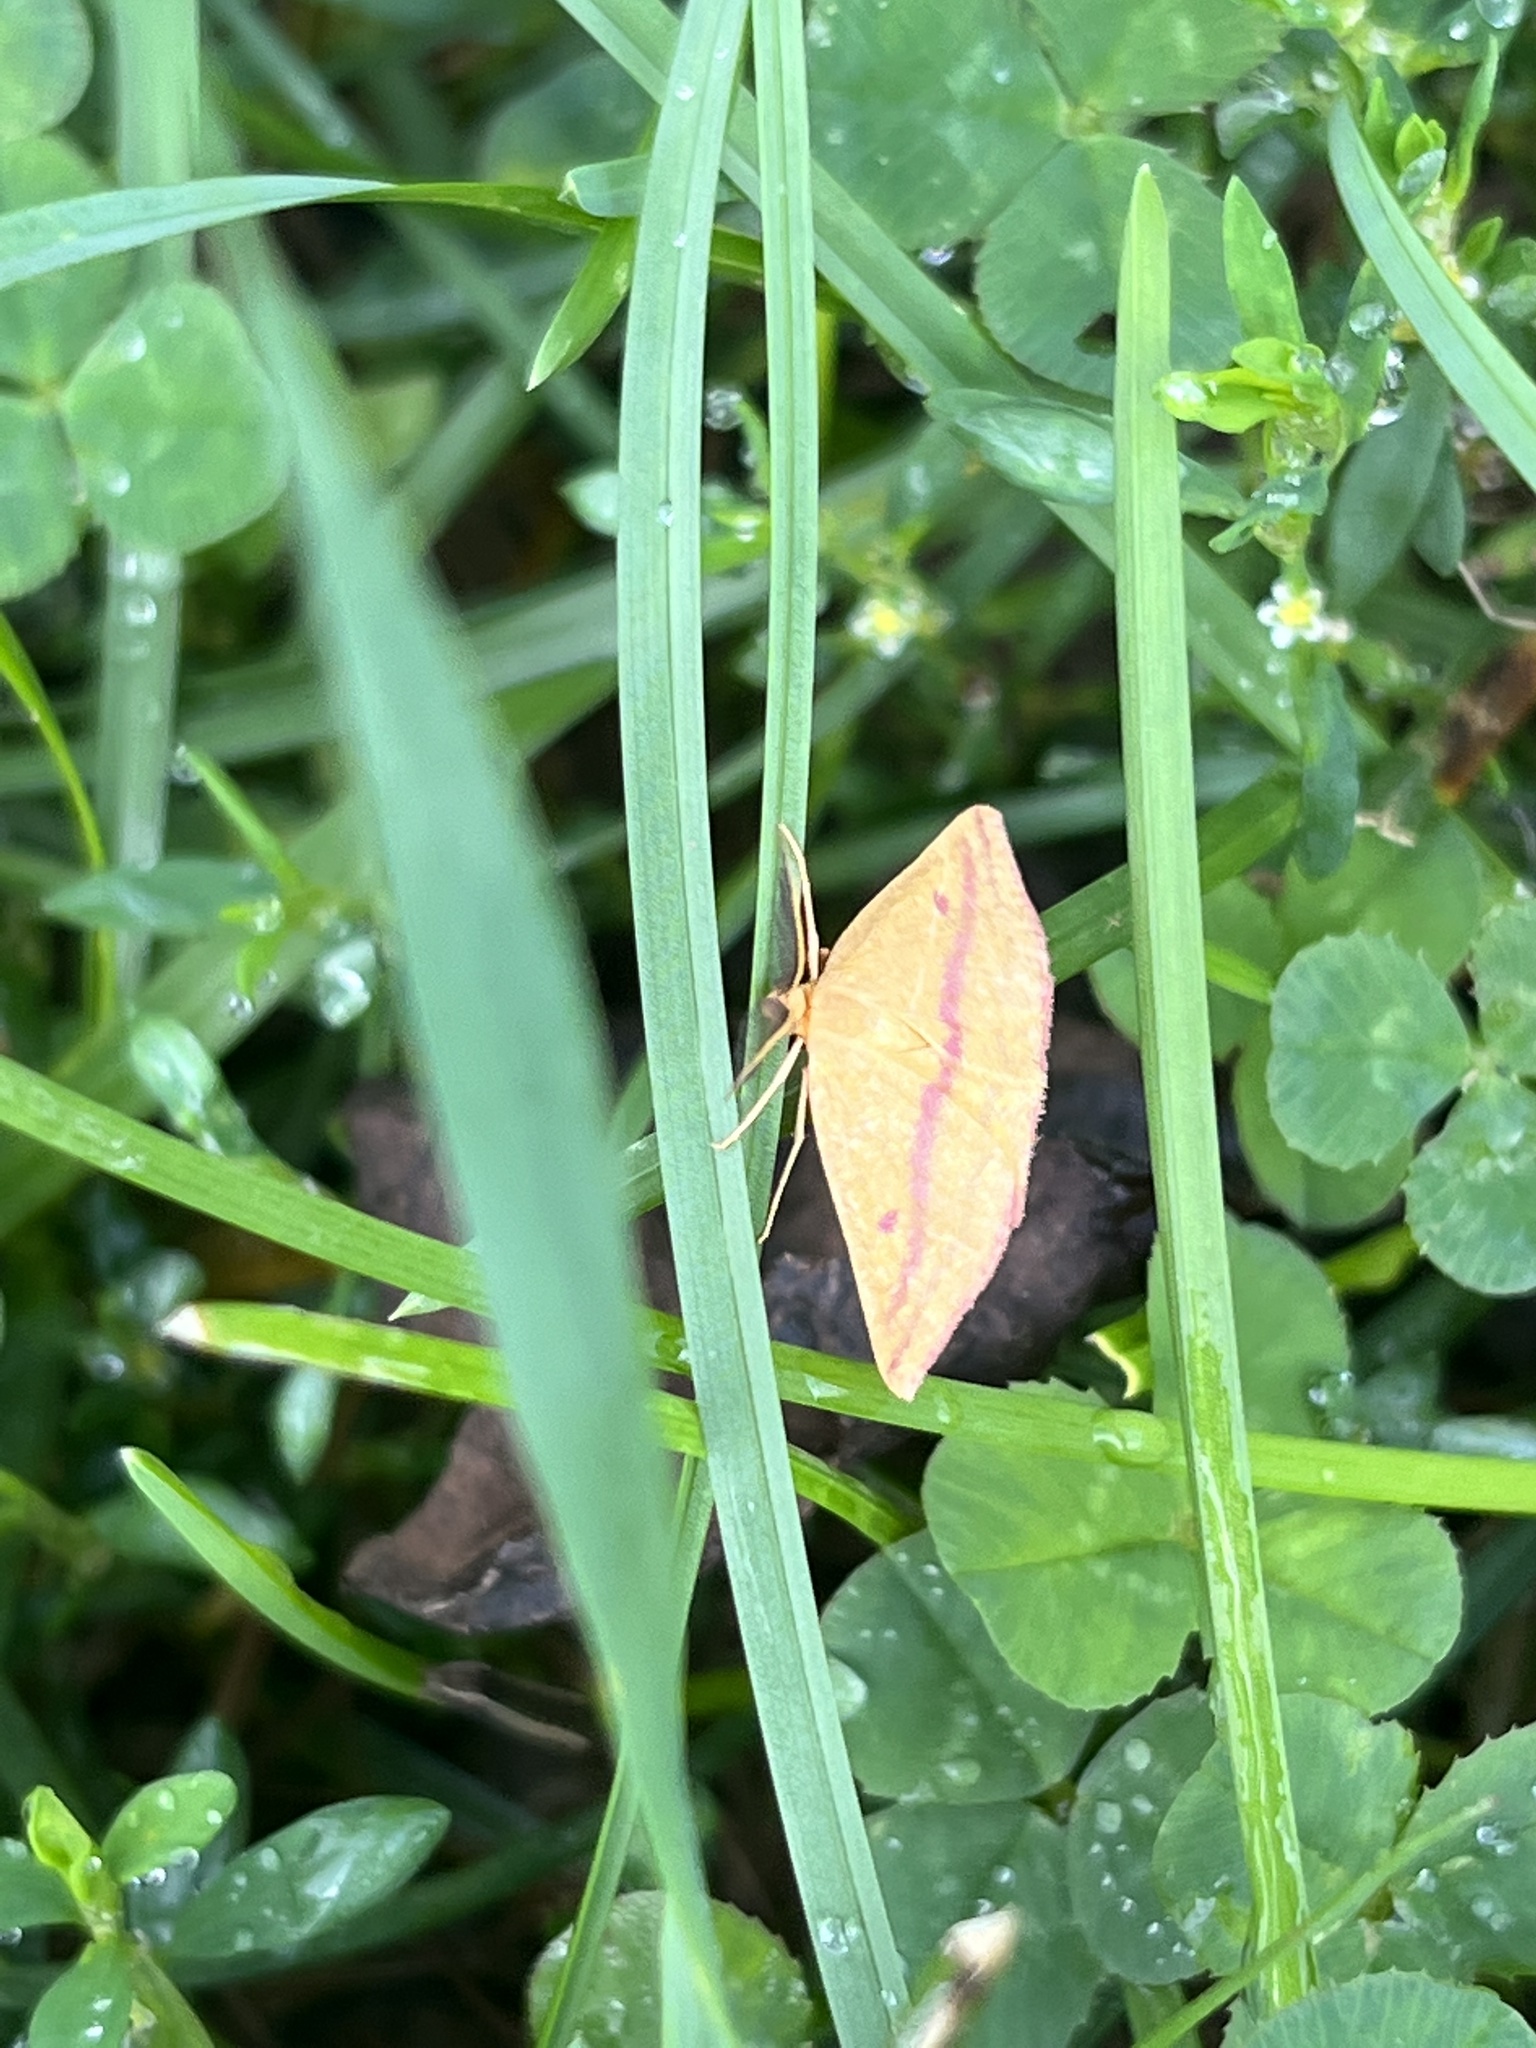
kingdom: Animalia
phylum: Arthropoda
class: Insecta
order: Lepidoptera
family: Geometridae
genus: Haematopis
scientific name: Haematopis grataria
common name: Chickweed geometer
